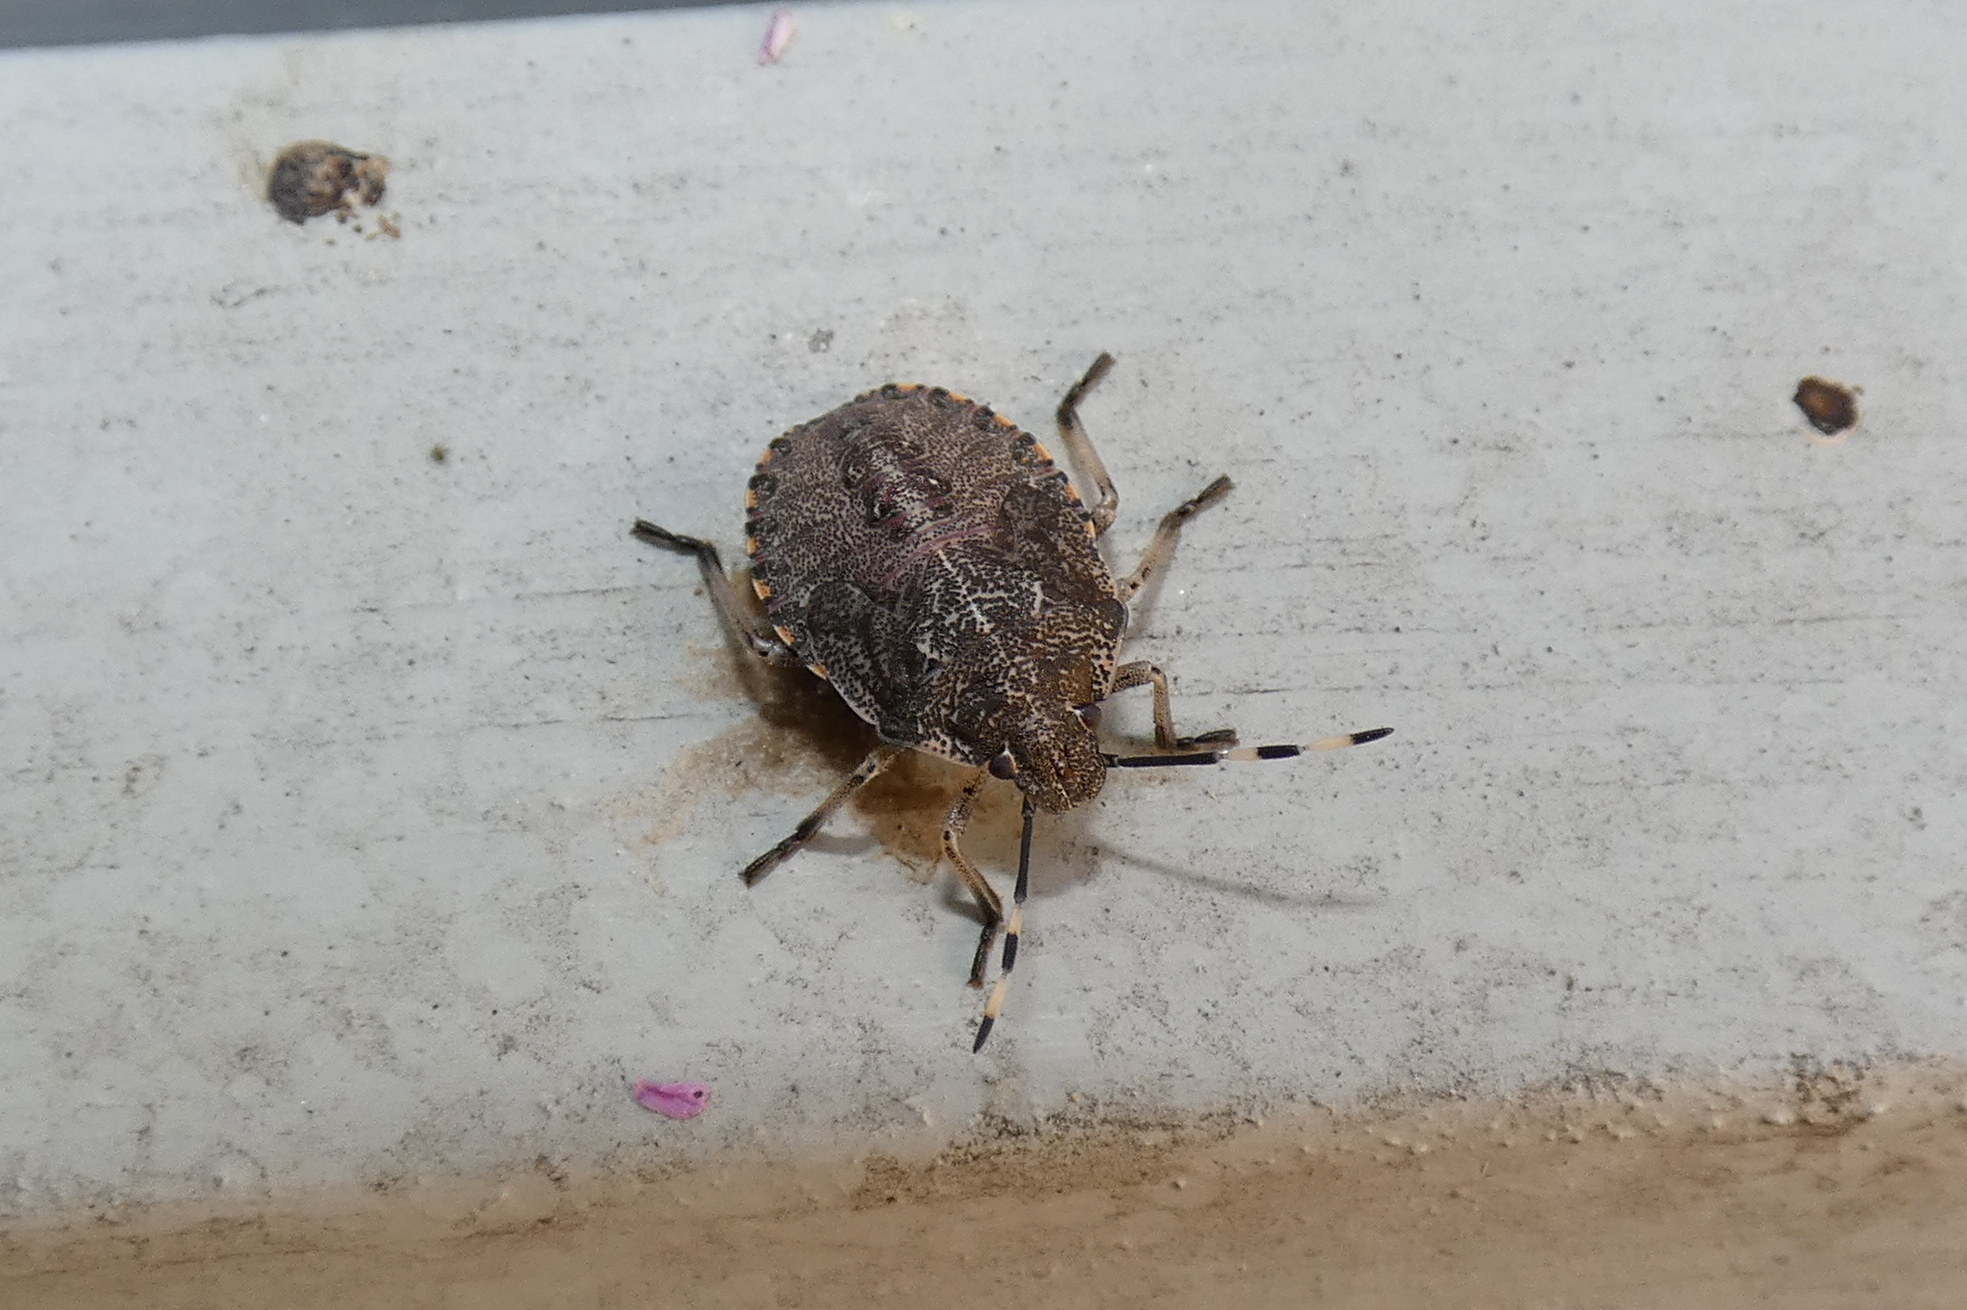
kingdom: Animalia
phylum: Arthropoda
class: Insecta
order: Hemiptera
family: Pentatomidae
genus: Rhaphigaster
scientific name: Rhaphigaster nebulosa
